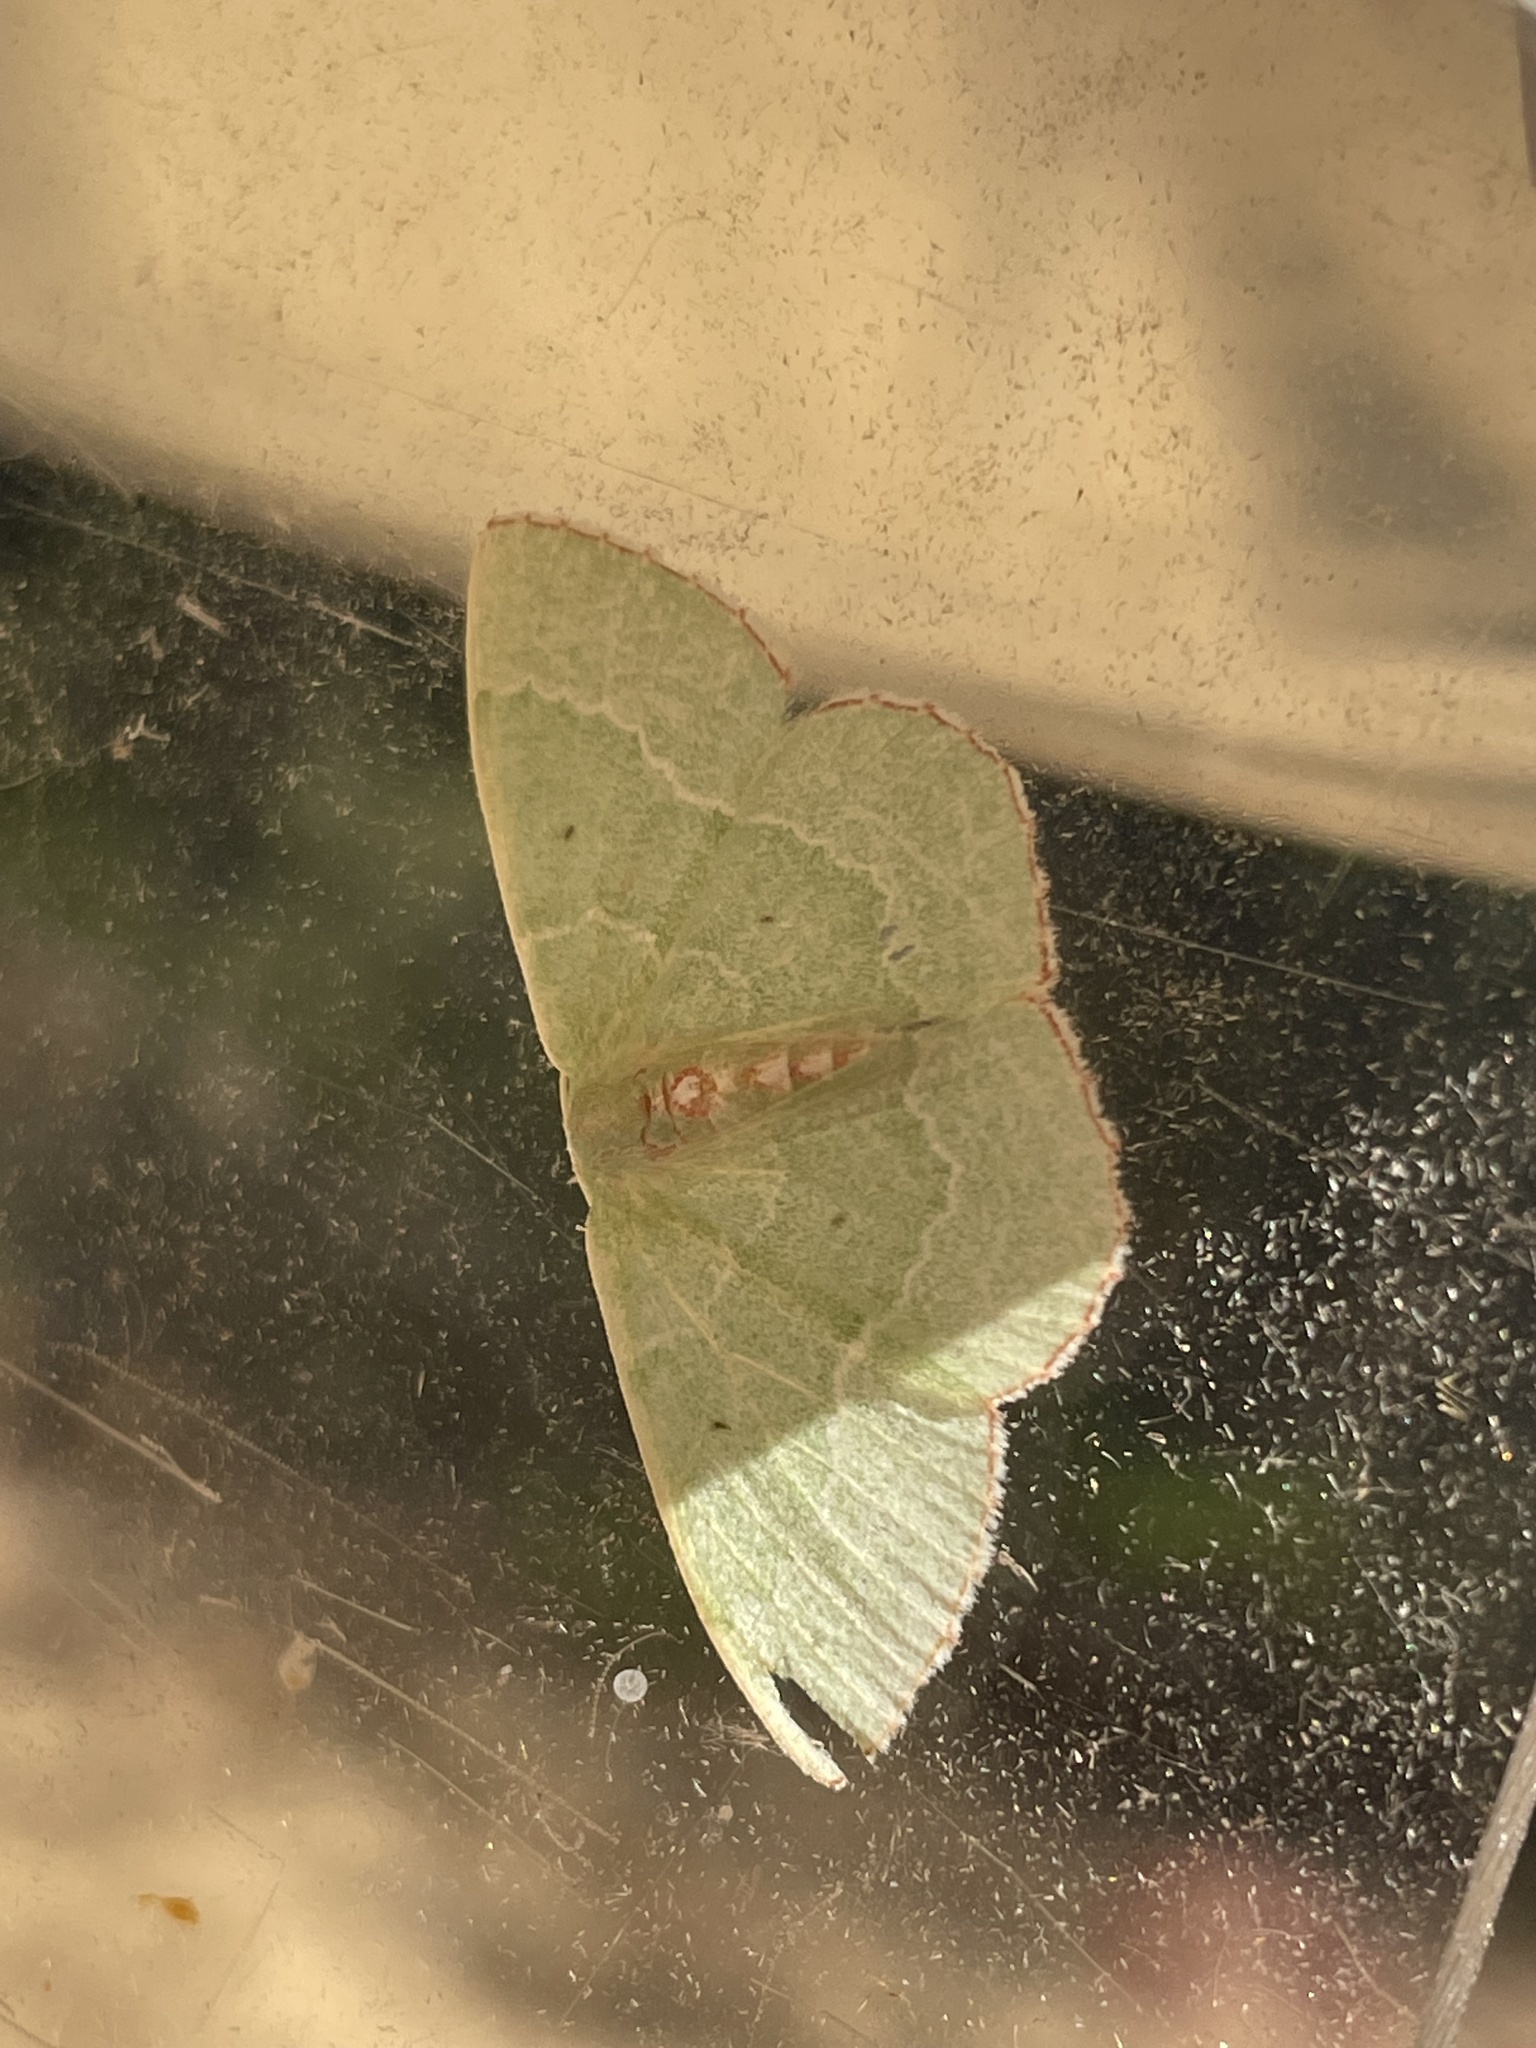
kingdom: Animalia
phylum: Arthropoda
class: Insecta
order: Lepidoptera
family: Geometridae
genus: Nemoria
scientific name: Nemoria lixaria
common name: Red-bordered emerald
